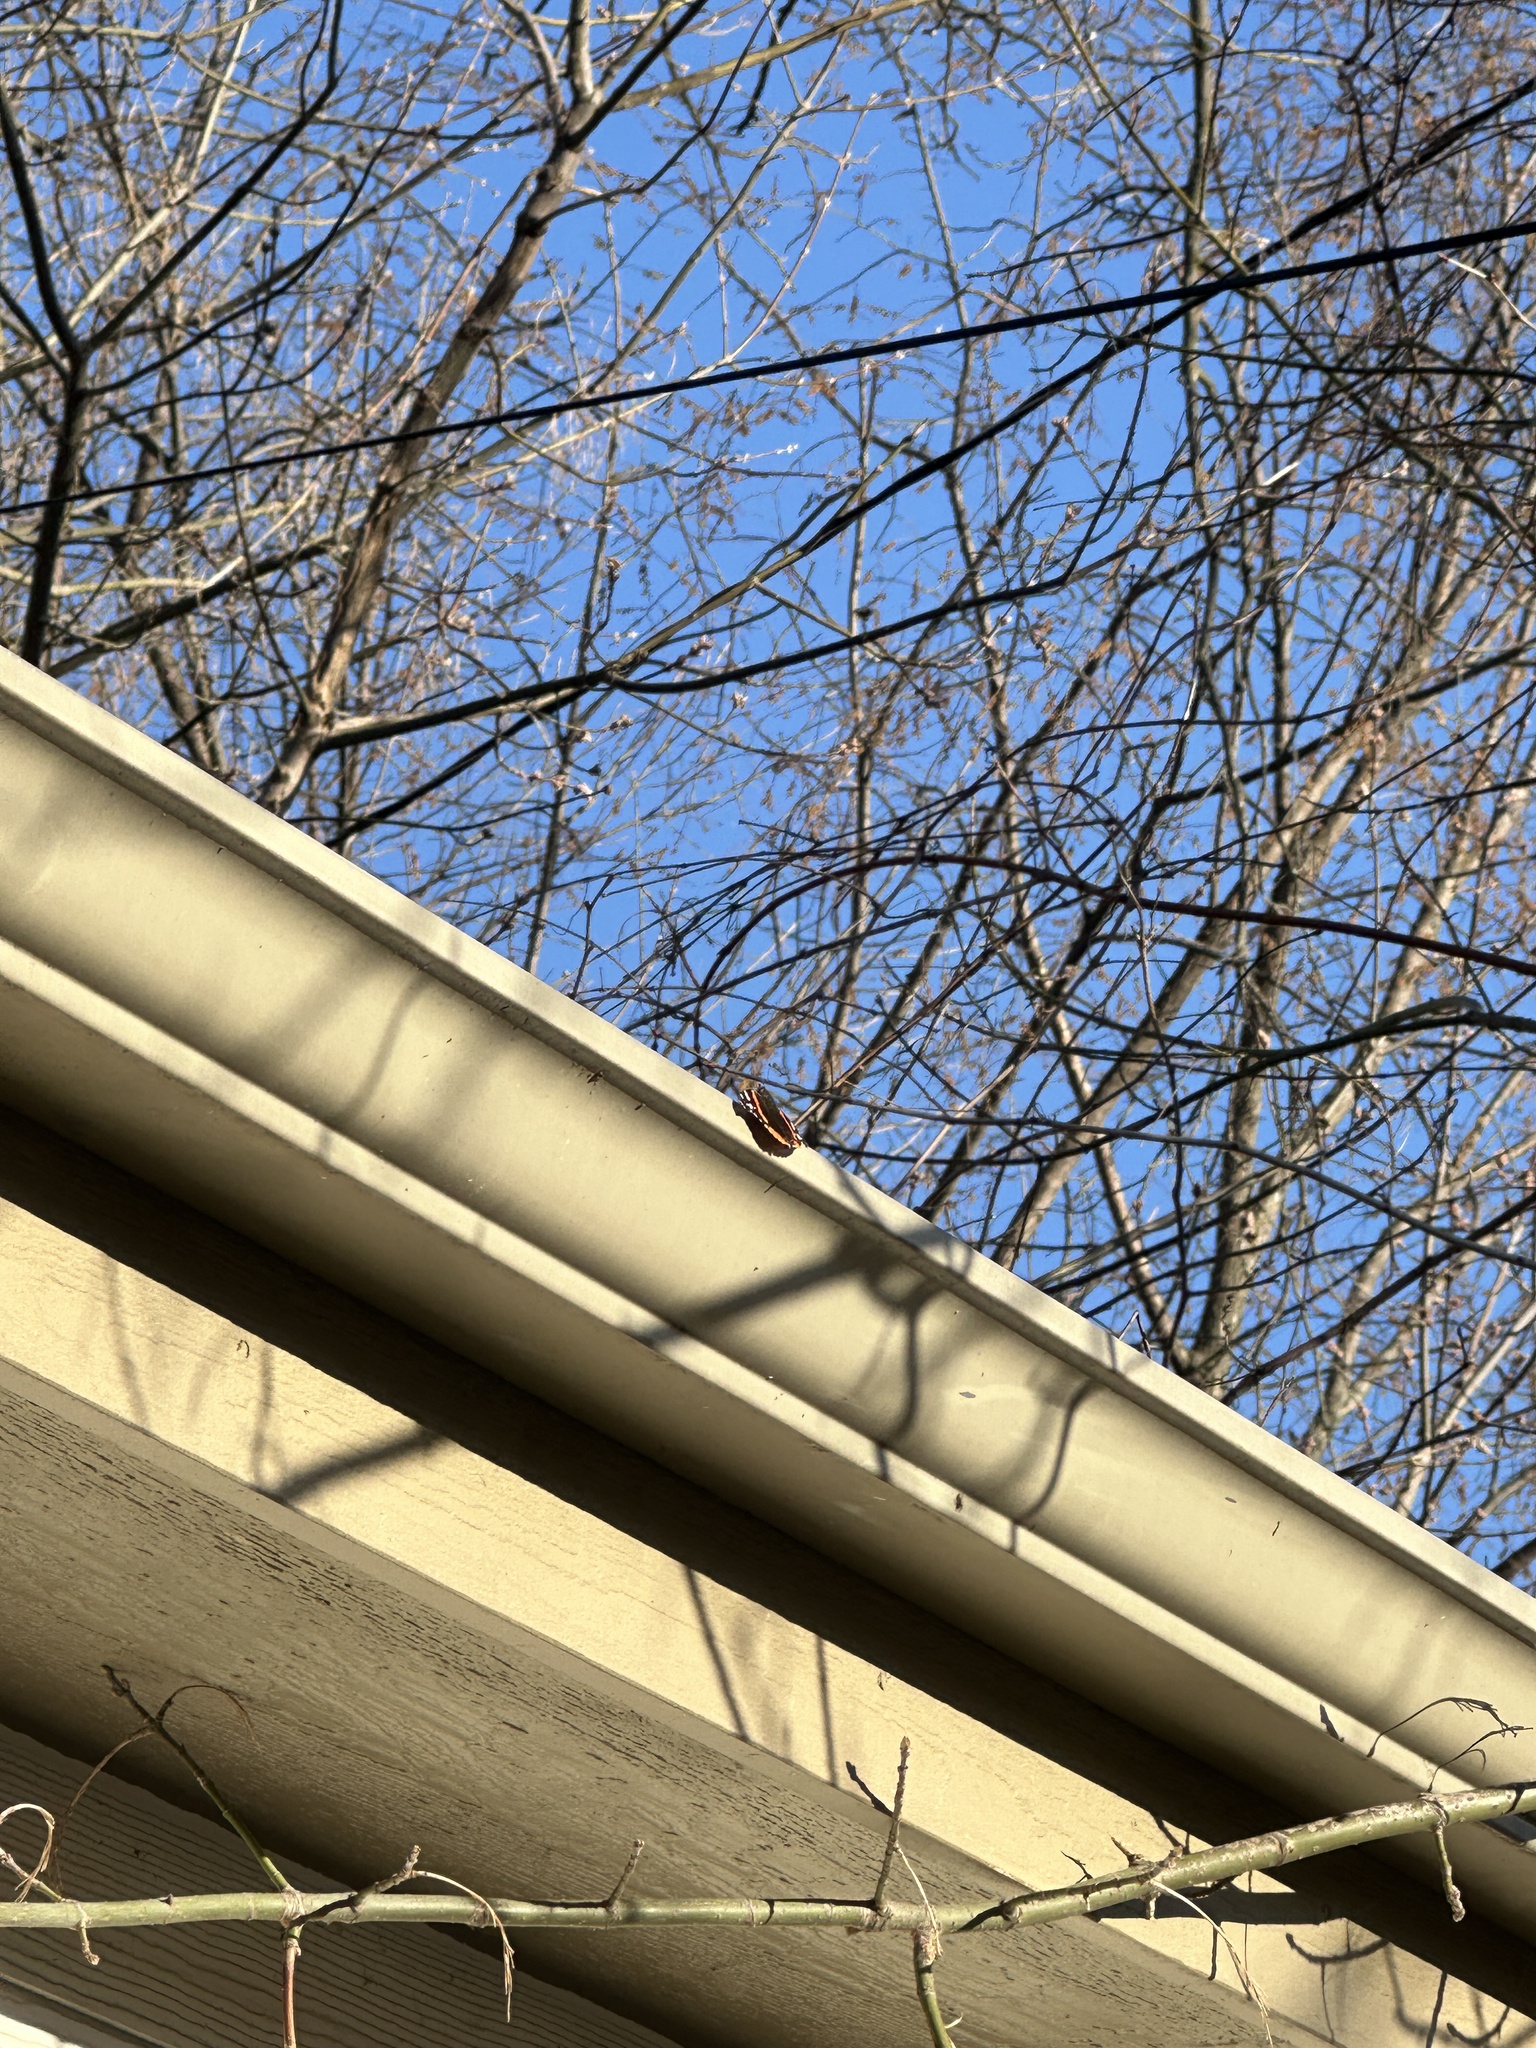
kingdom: Animalia
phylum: Arthropoda
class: Insecta
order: Lepidoptera
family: Nymphalidae
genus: Vanessa
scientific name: Vanessa atalanta
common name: Red admiral
